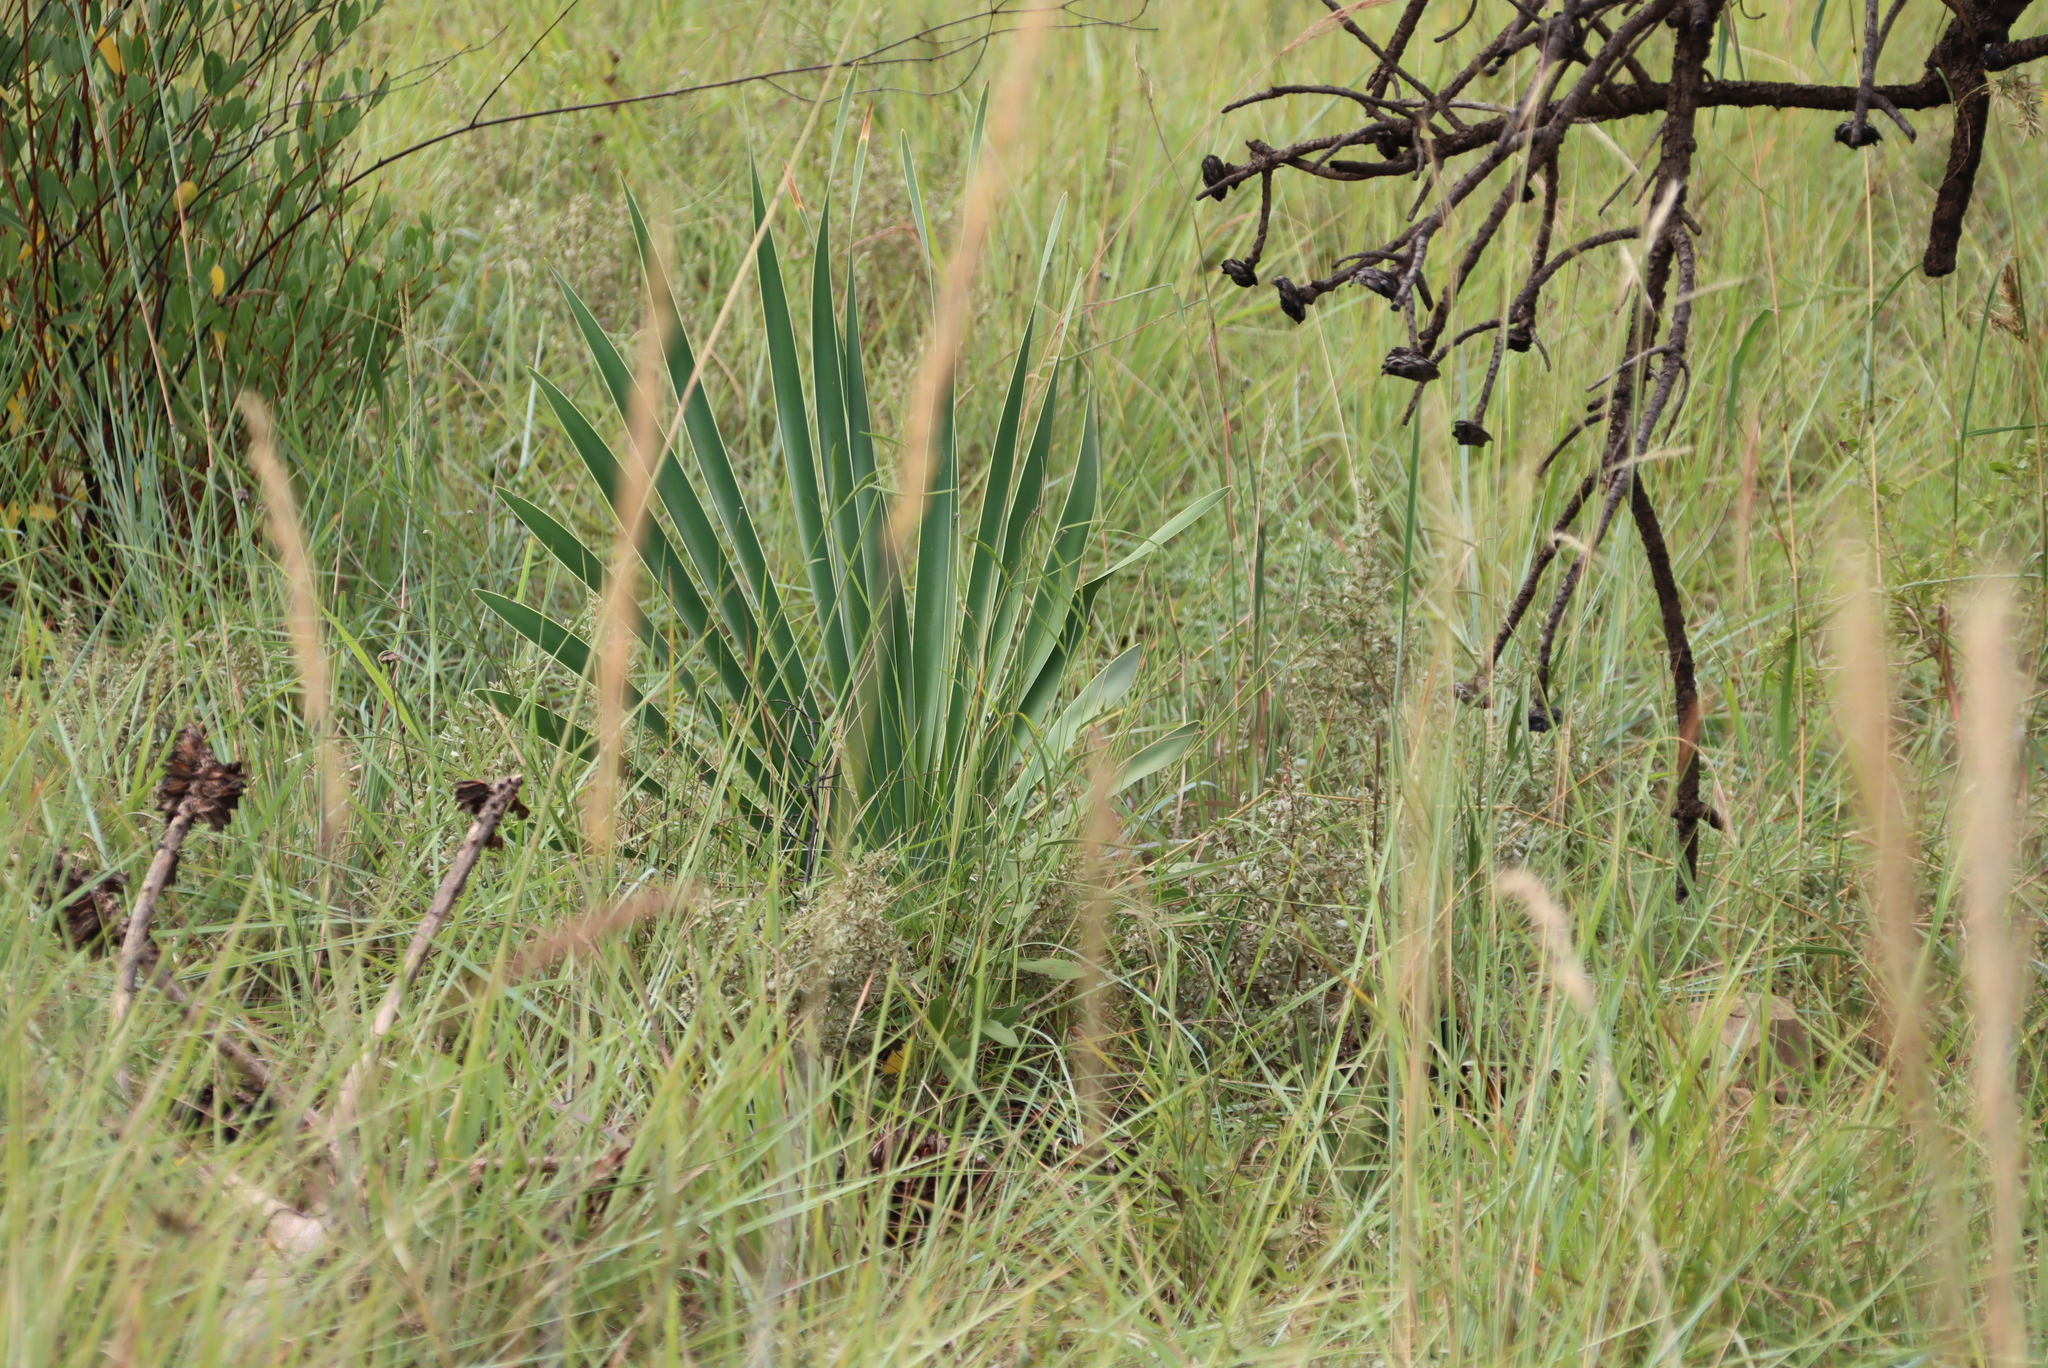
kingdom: Plantae
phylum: Tracheophyta
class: Liliopsida
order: Asparagales
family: Amaryllidaceae
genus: Boophone
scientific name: Boophone disticha
